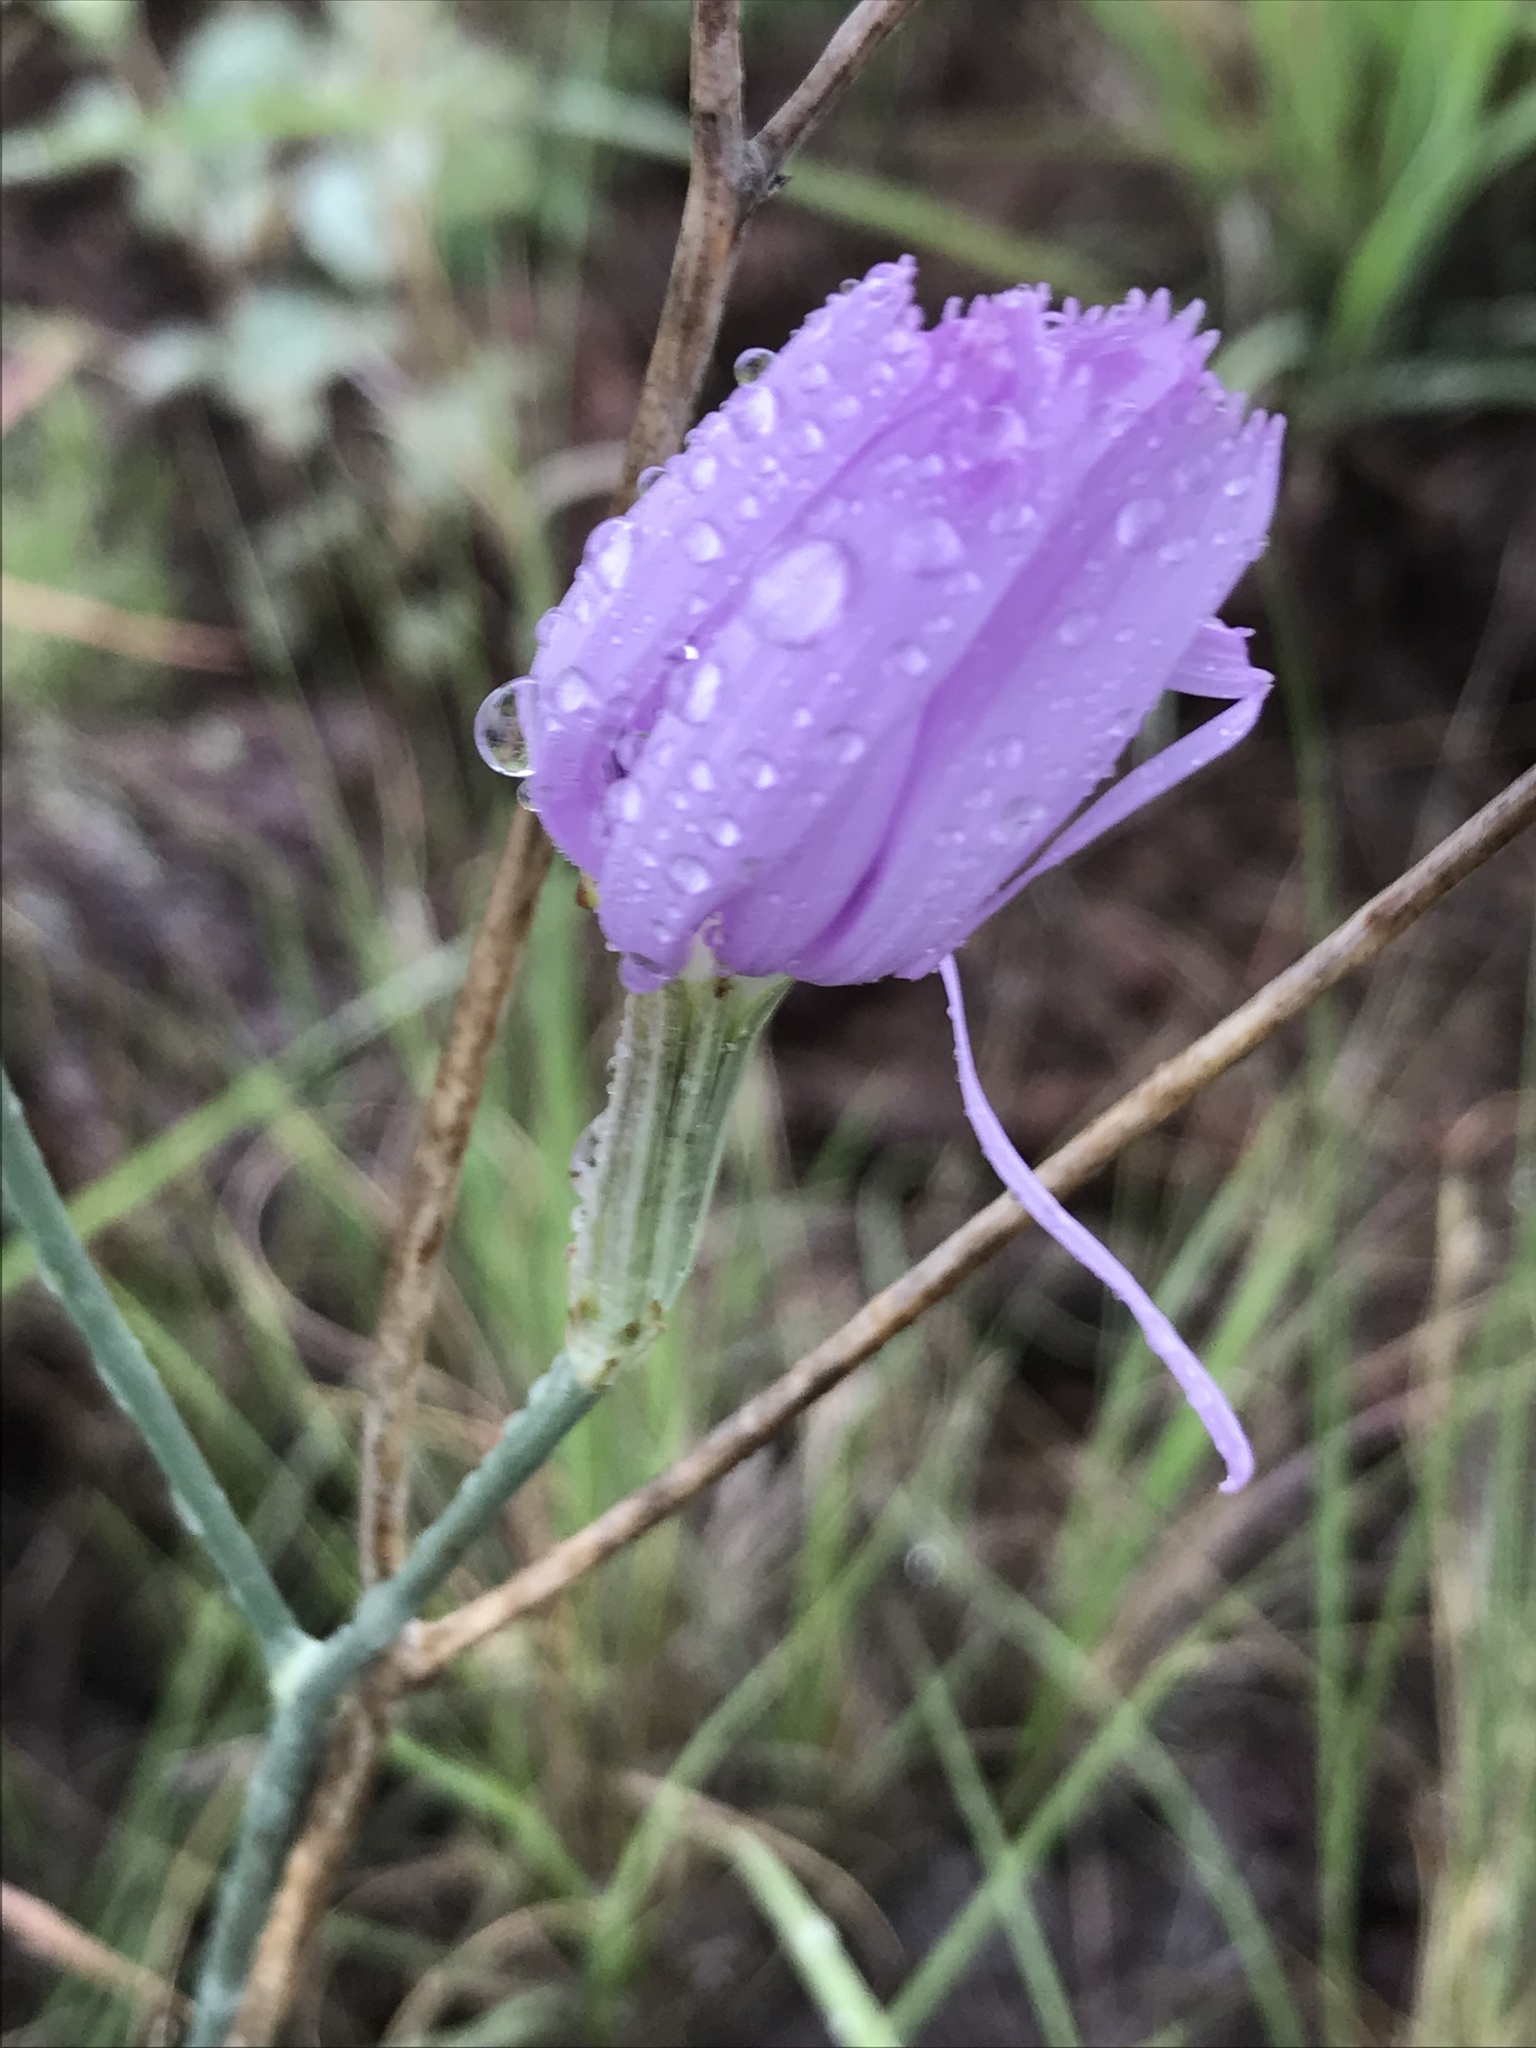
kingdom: Plantae
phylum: Tracheophyta
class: Magnoliopsida
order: Asterales
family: Asteraceae
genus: Lygodesmia
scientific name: Lygodesmia texana
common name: Texas skeleton-plant
